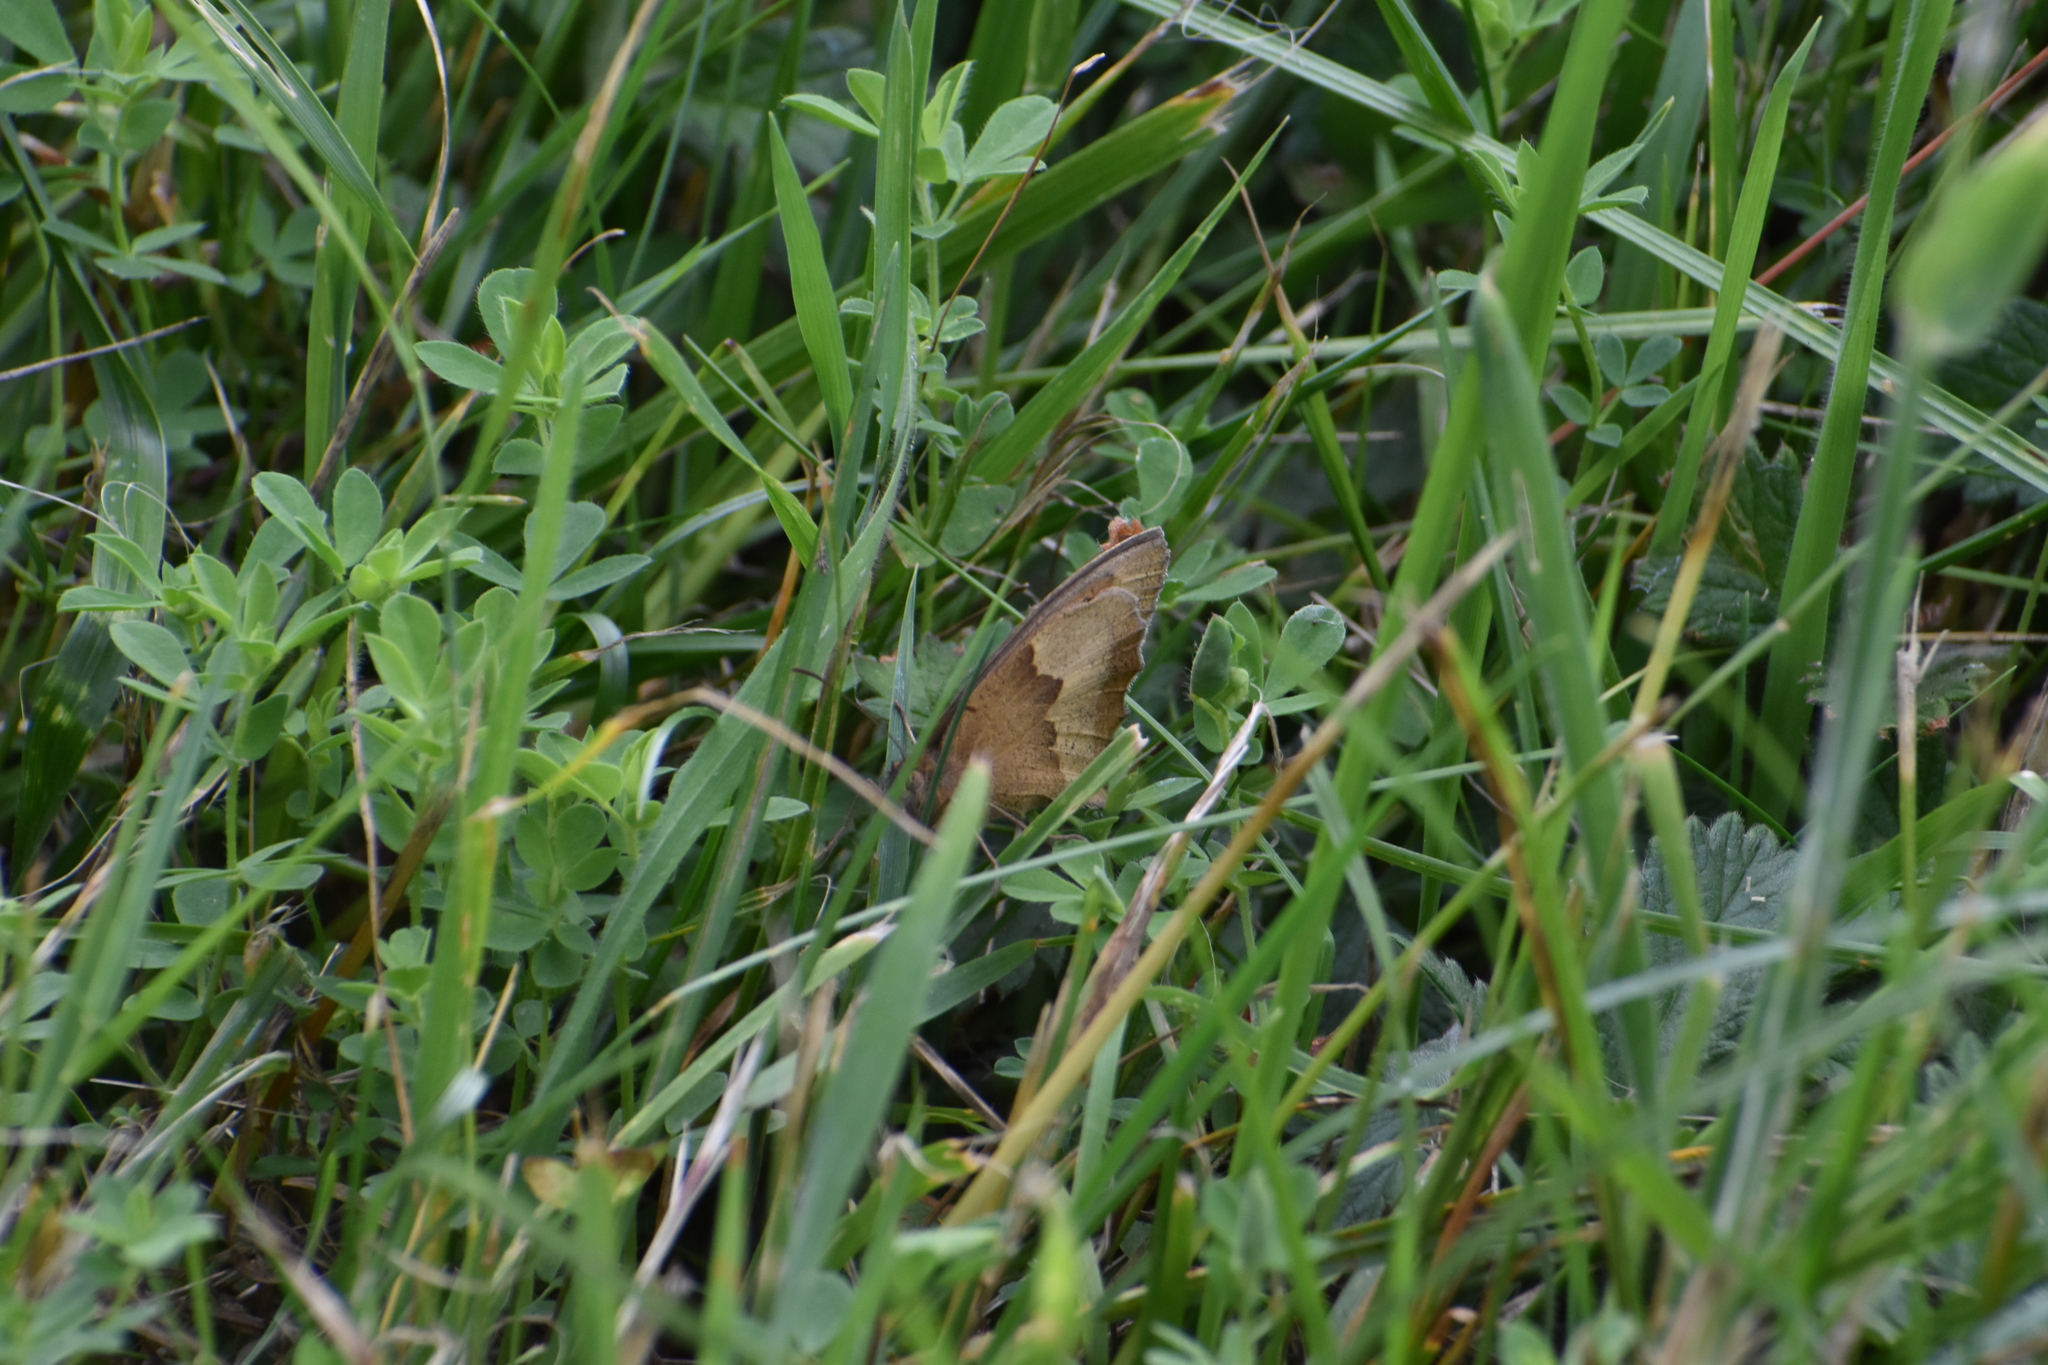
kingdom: Animalia
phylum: Arthropoda
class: Insecta
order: Lepidoptera
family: Nymphalidae
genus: Maniola
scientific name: Maniola jurtina
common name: Meadow brown
